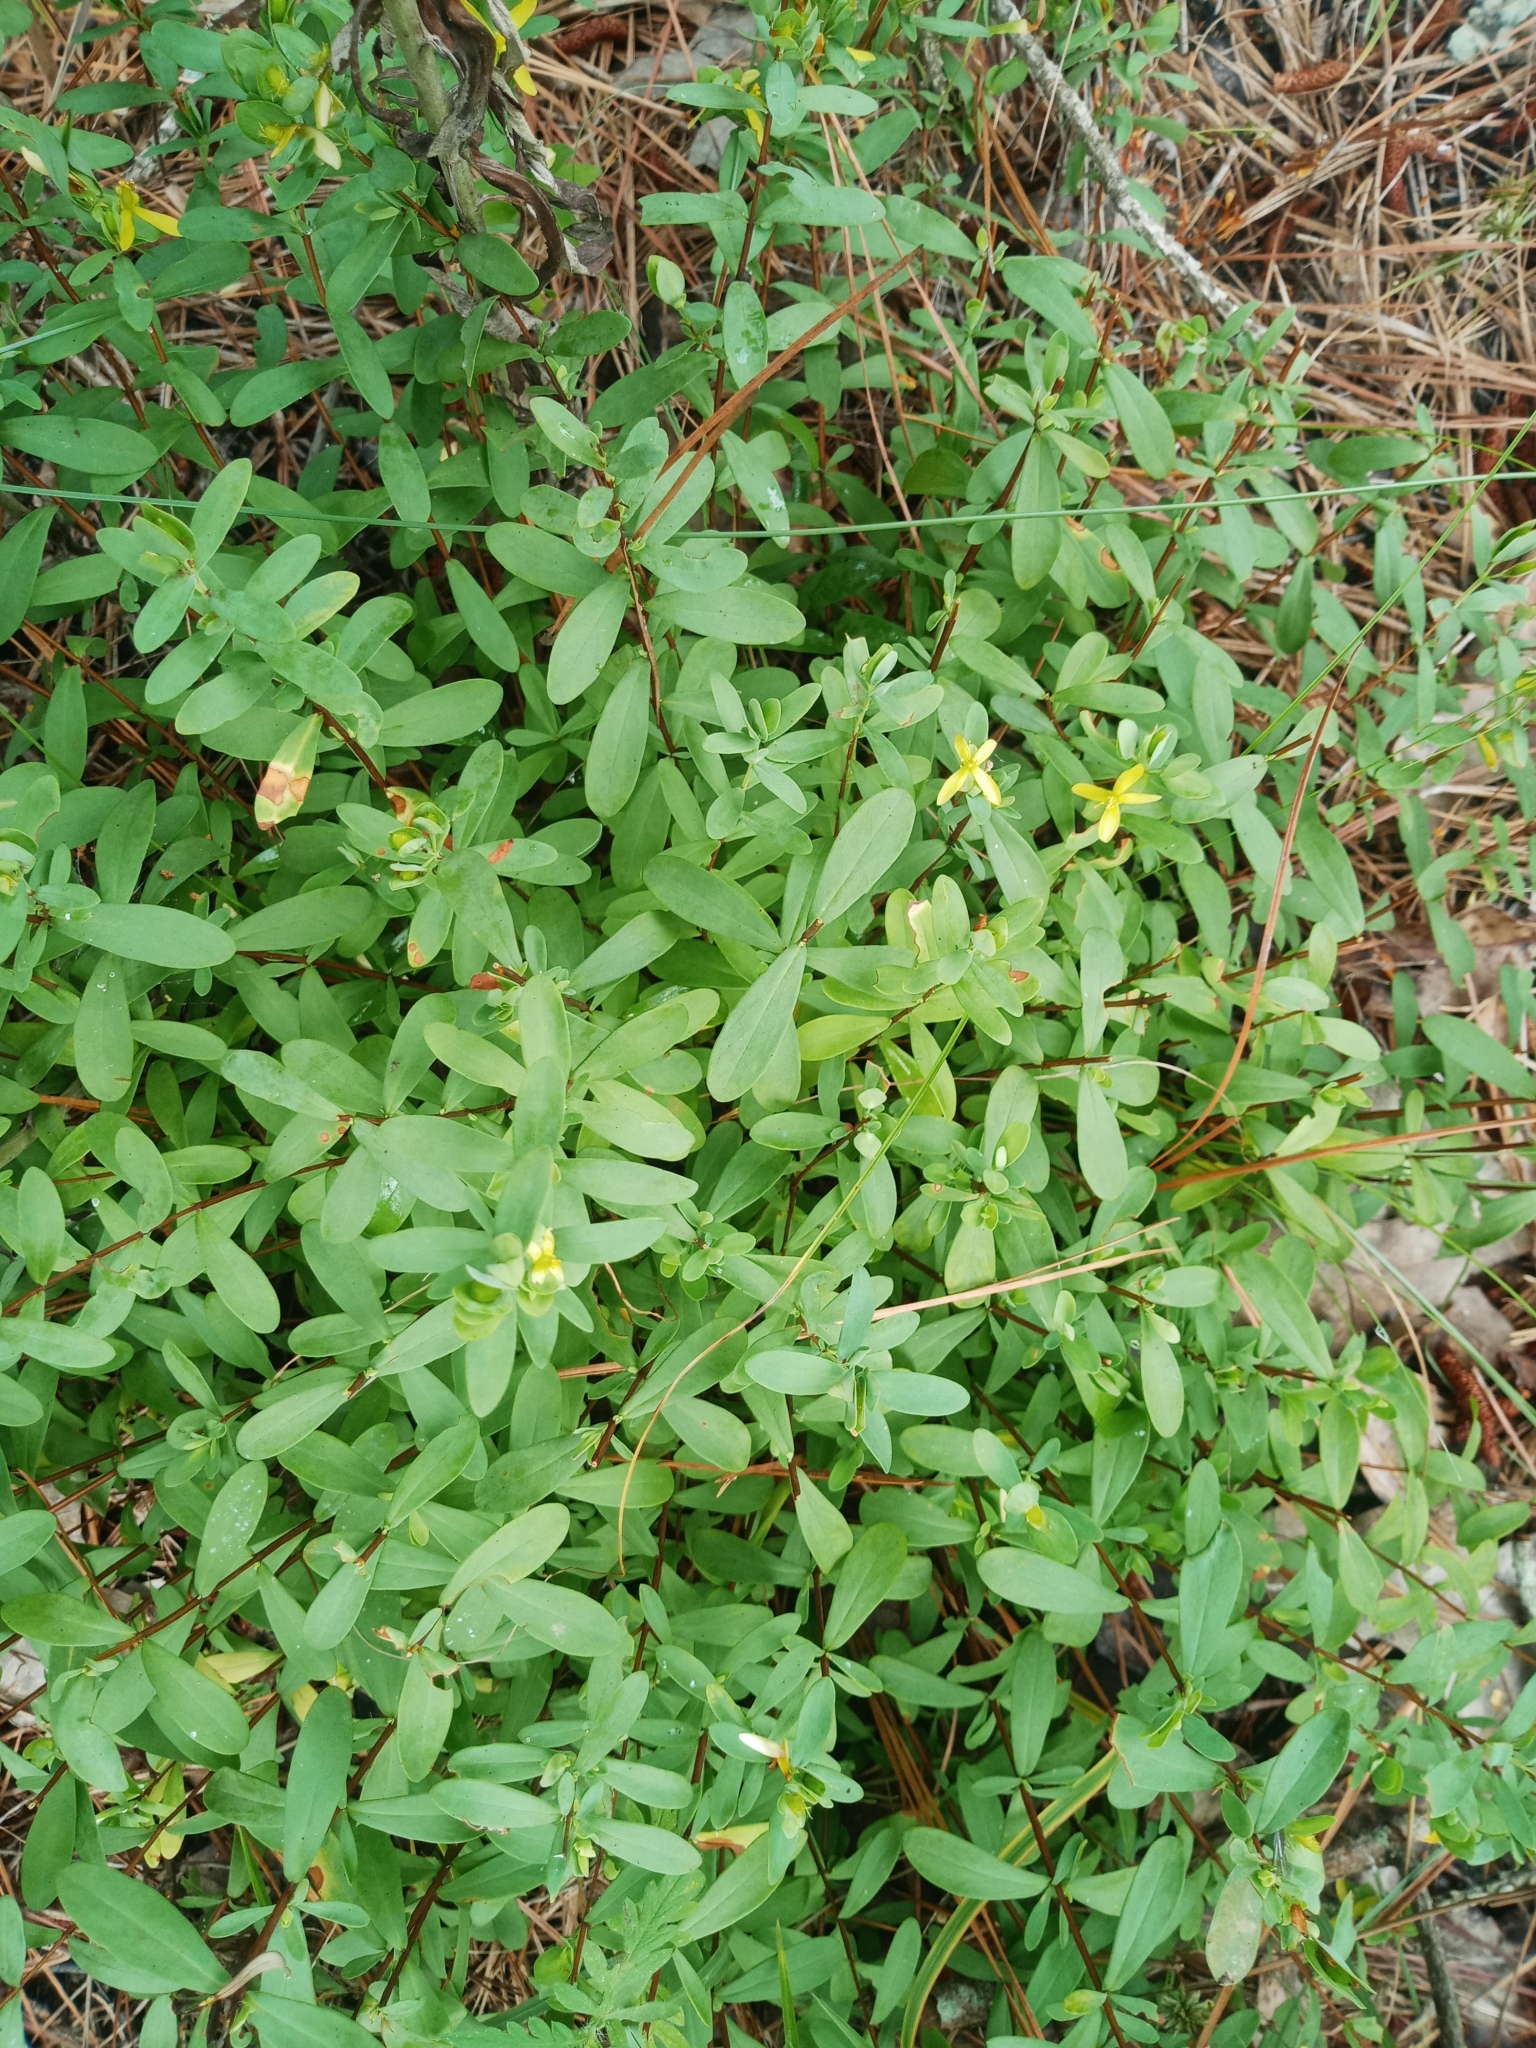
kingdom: Plantae
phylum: Tracheophyta
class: Magnoliopsida
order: Malpighiales
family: Hypericaceae
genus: Hypericum
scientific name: Hypericum hypericoides
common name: St. andrew's cross
